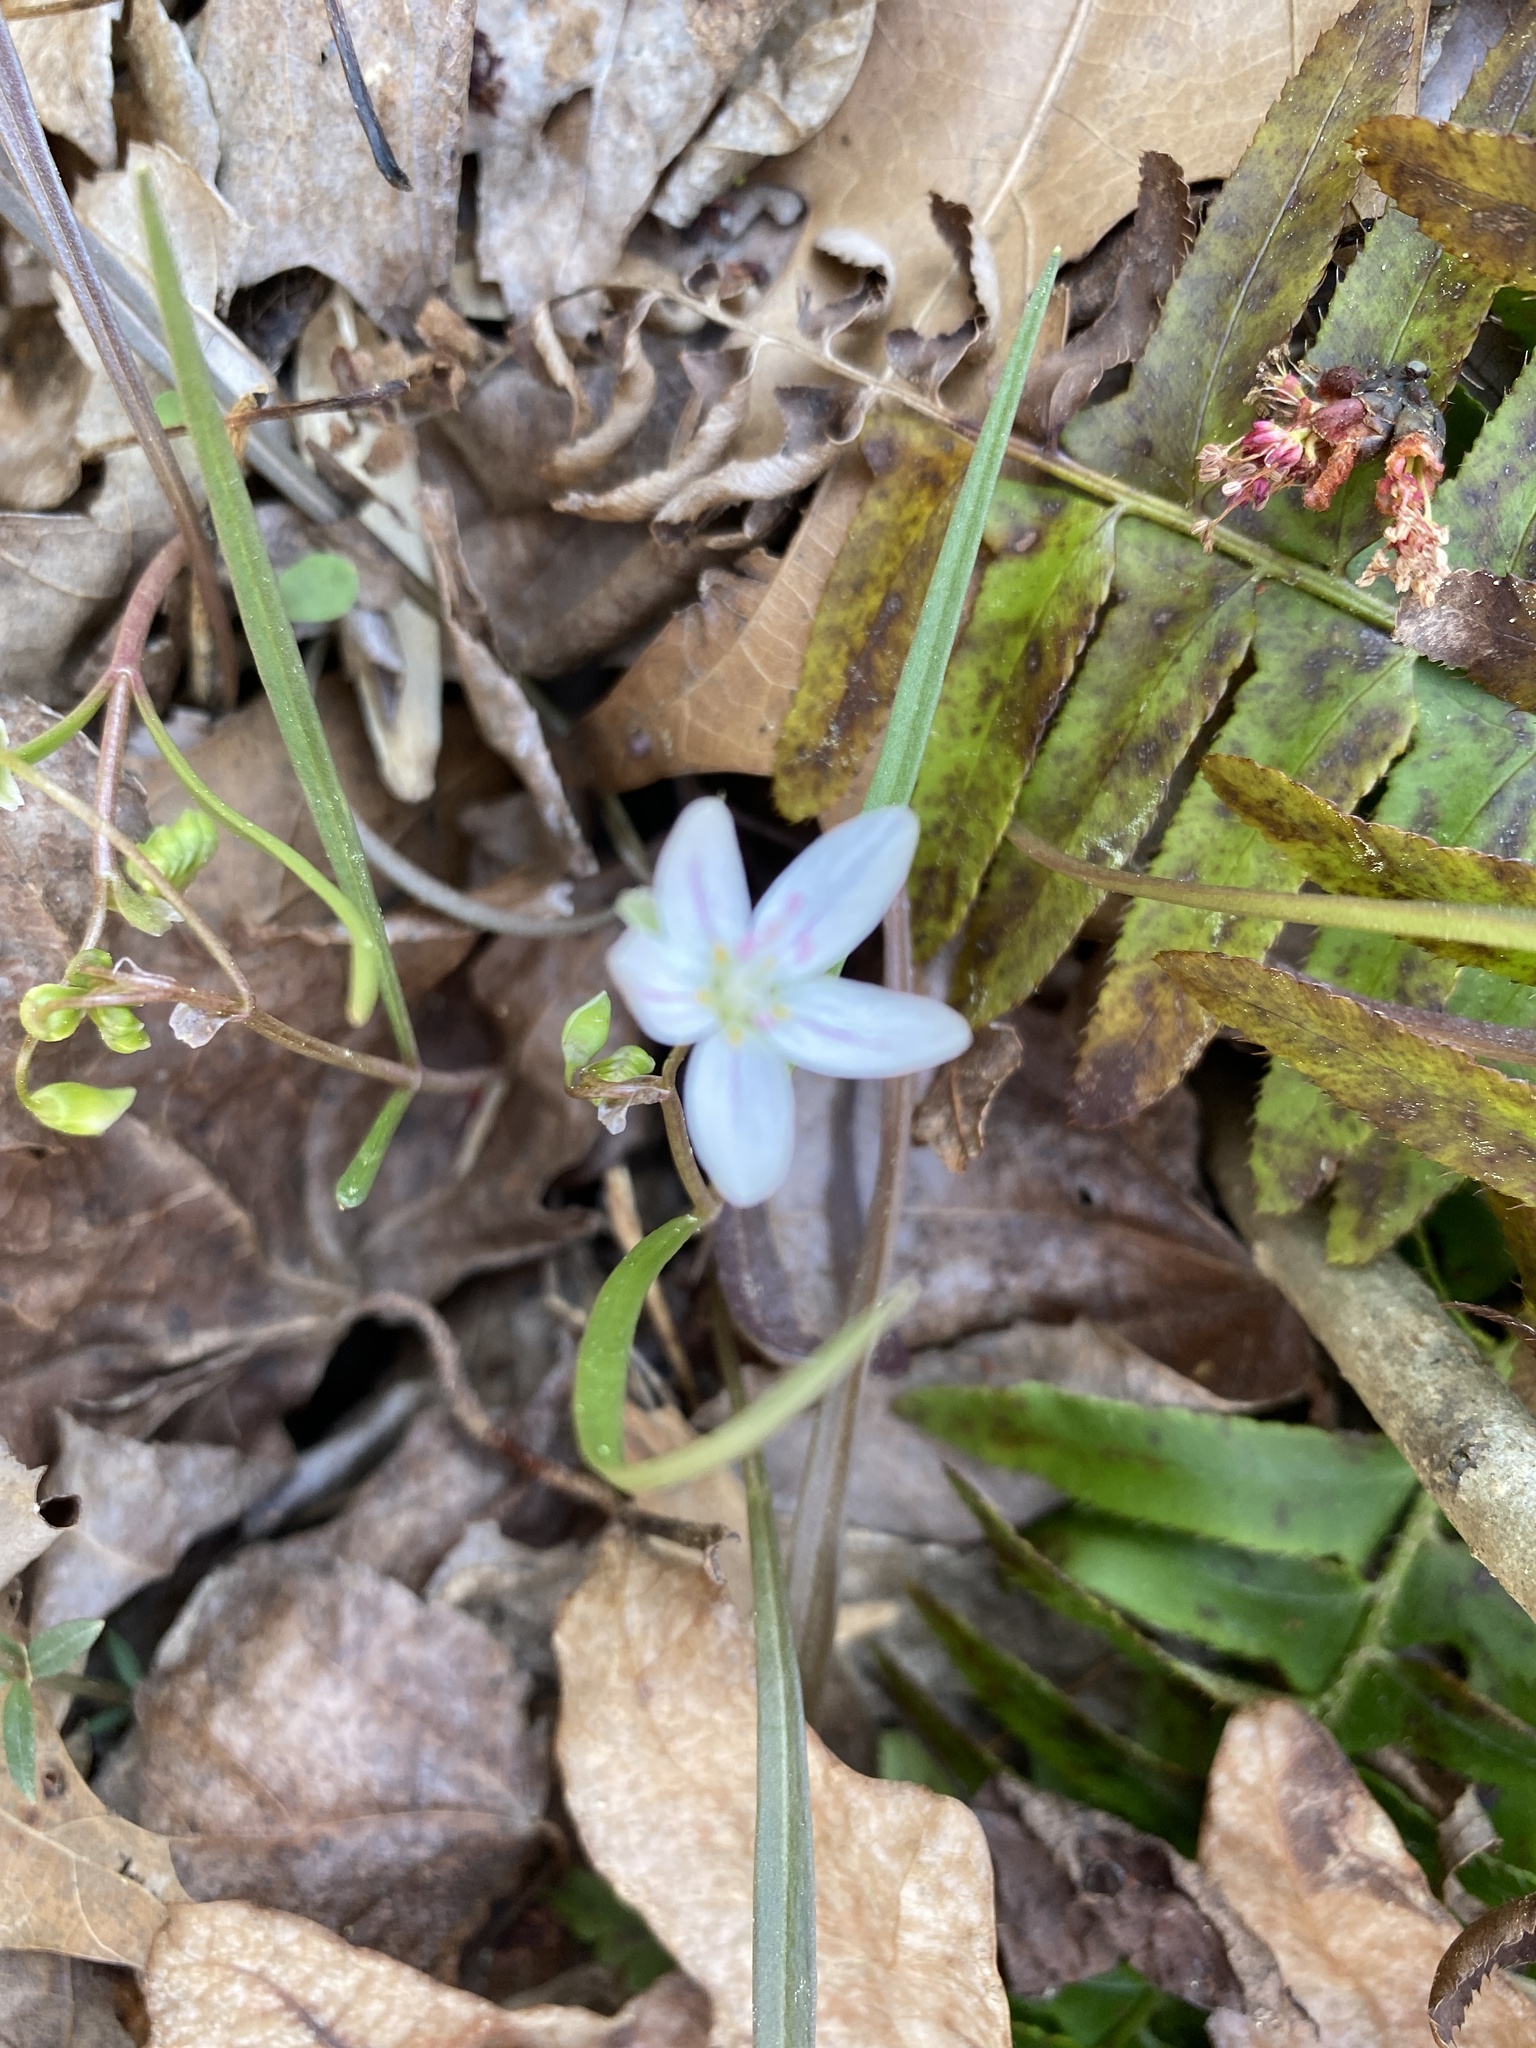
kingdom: Plantae
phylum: Tracheophyta
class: Magnoliopsida
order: Caryophyllales
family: Montiaceae
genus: Claytonia
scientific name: Claytonia virginica
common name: Virginia springbeauty
